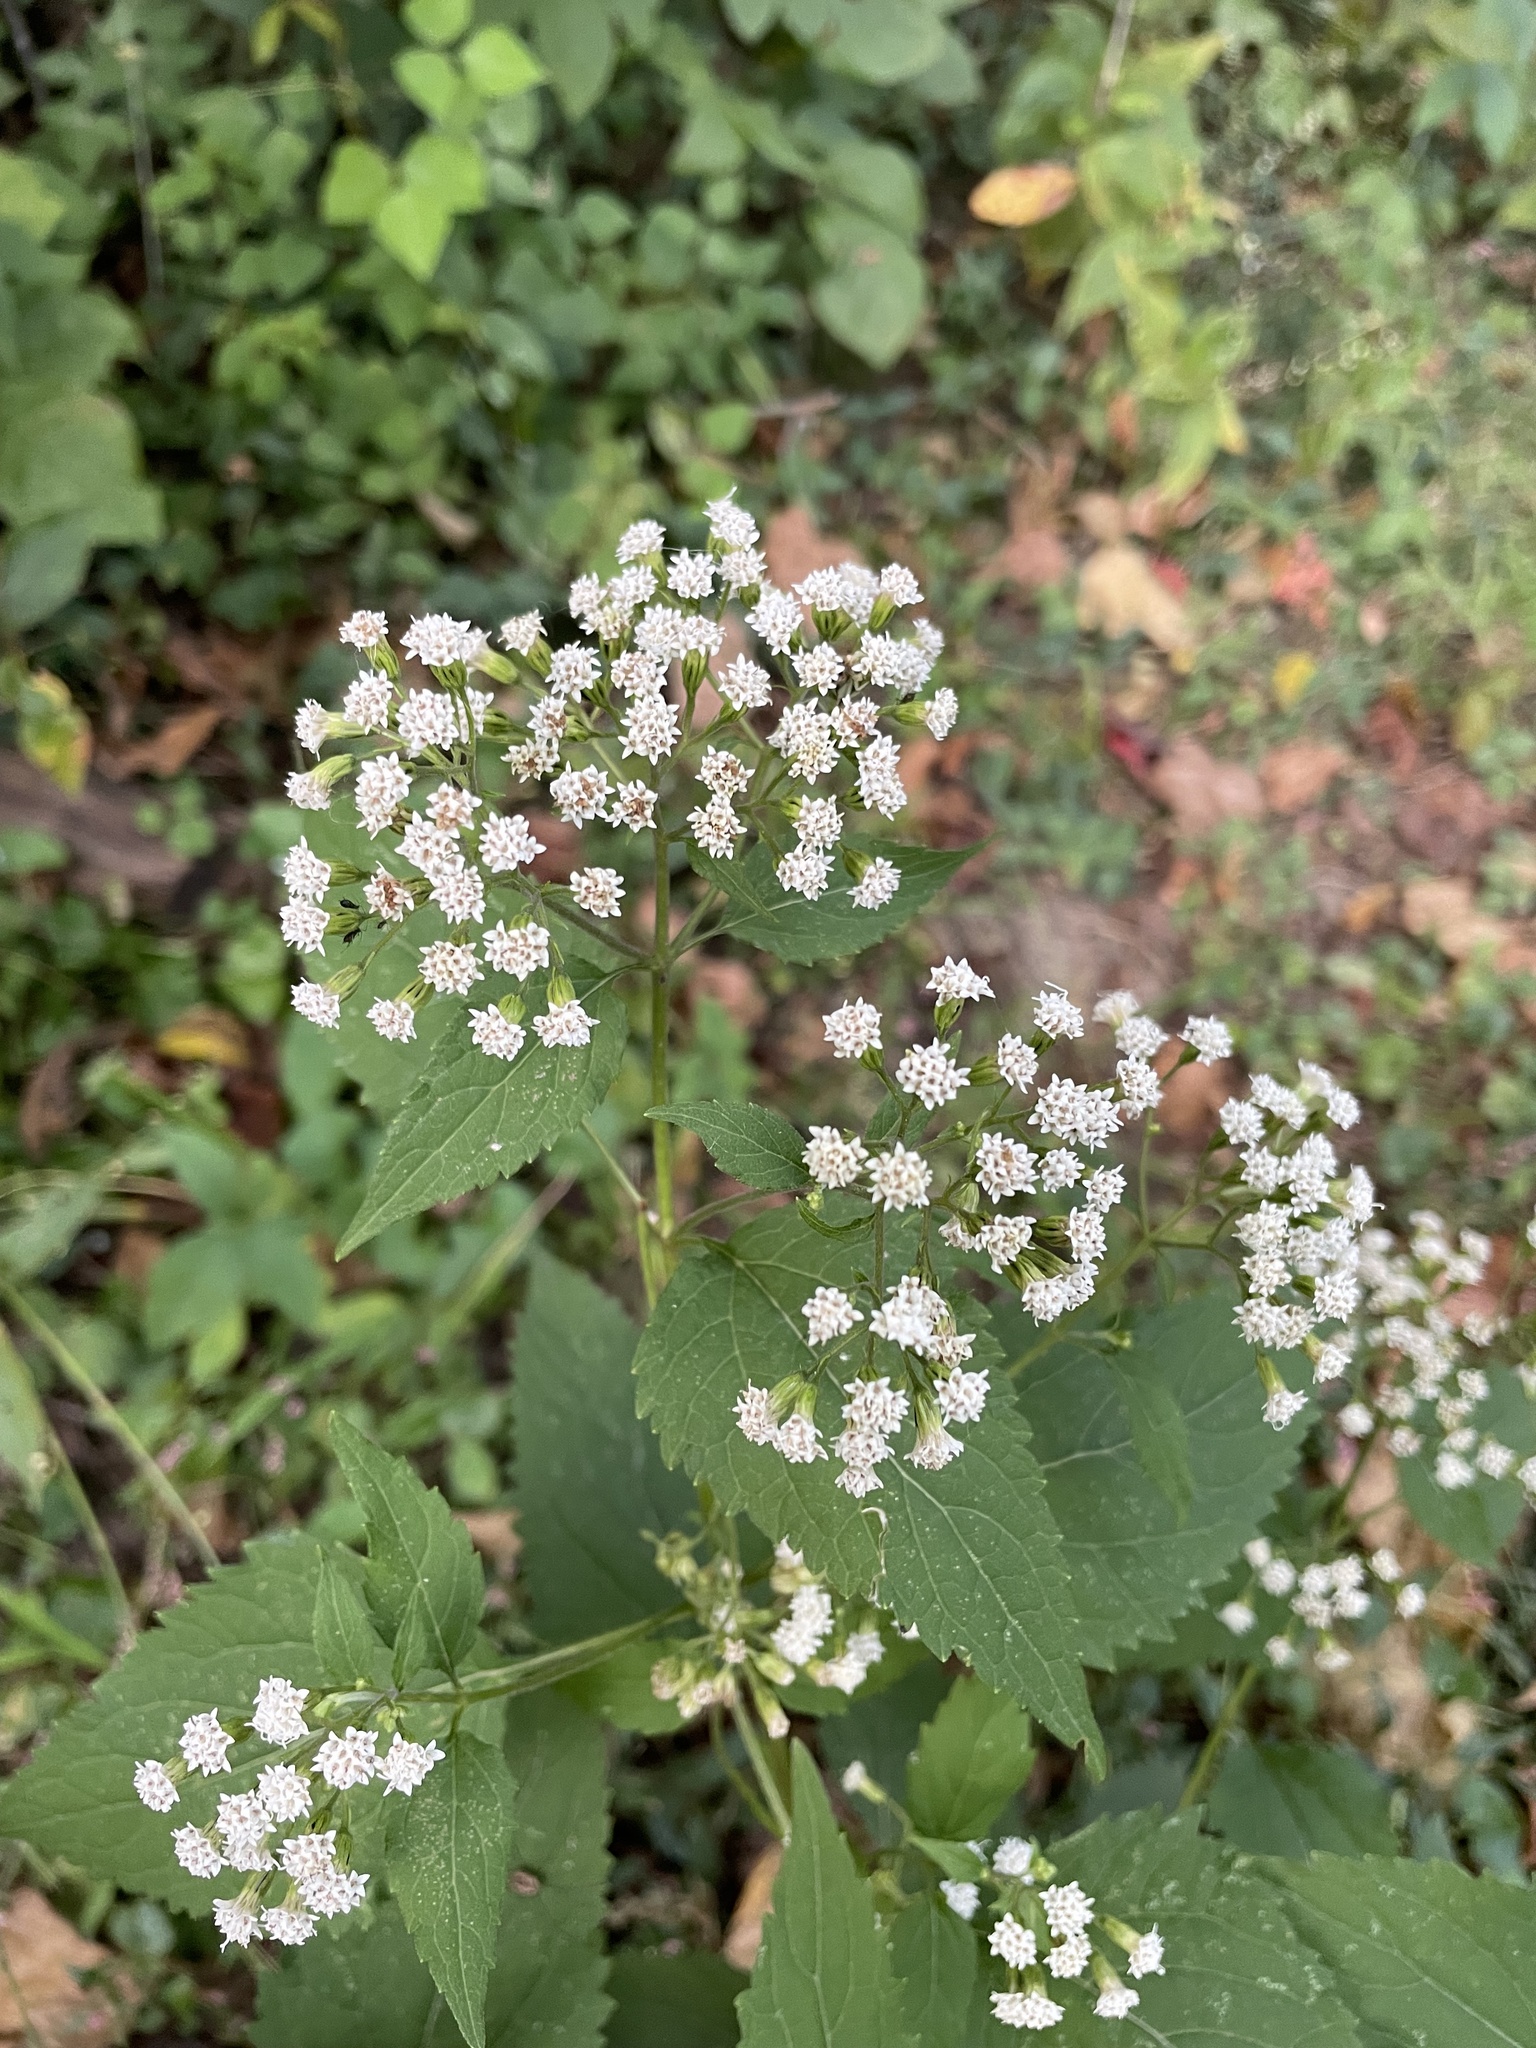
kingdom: Plantae
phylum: Tracheophyta
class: Magnoliopsida
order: Asterales
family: Asteraceae
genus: Ageratina
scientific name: Ageratina altissima
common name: White snakeroot
